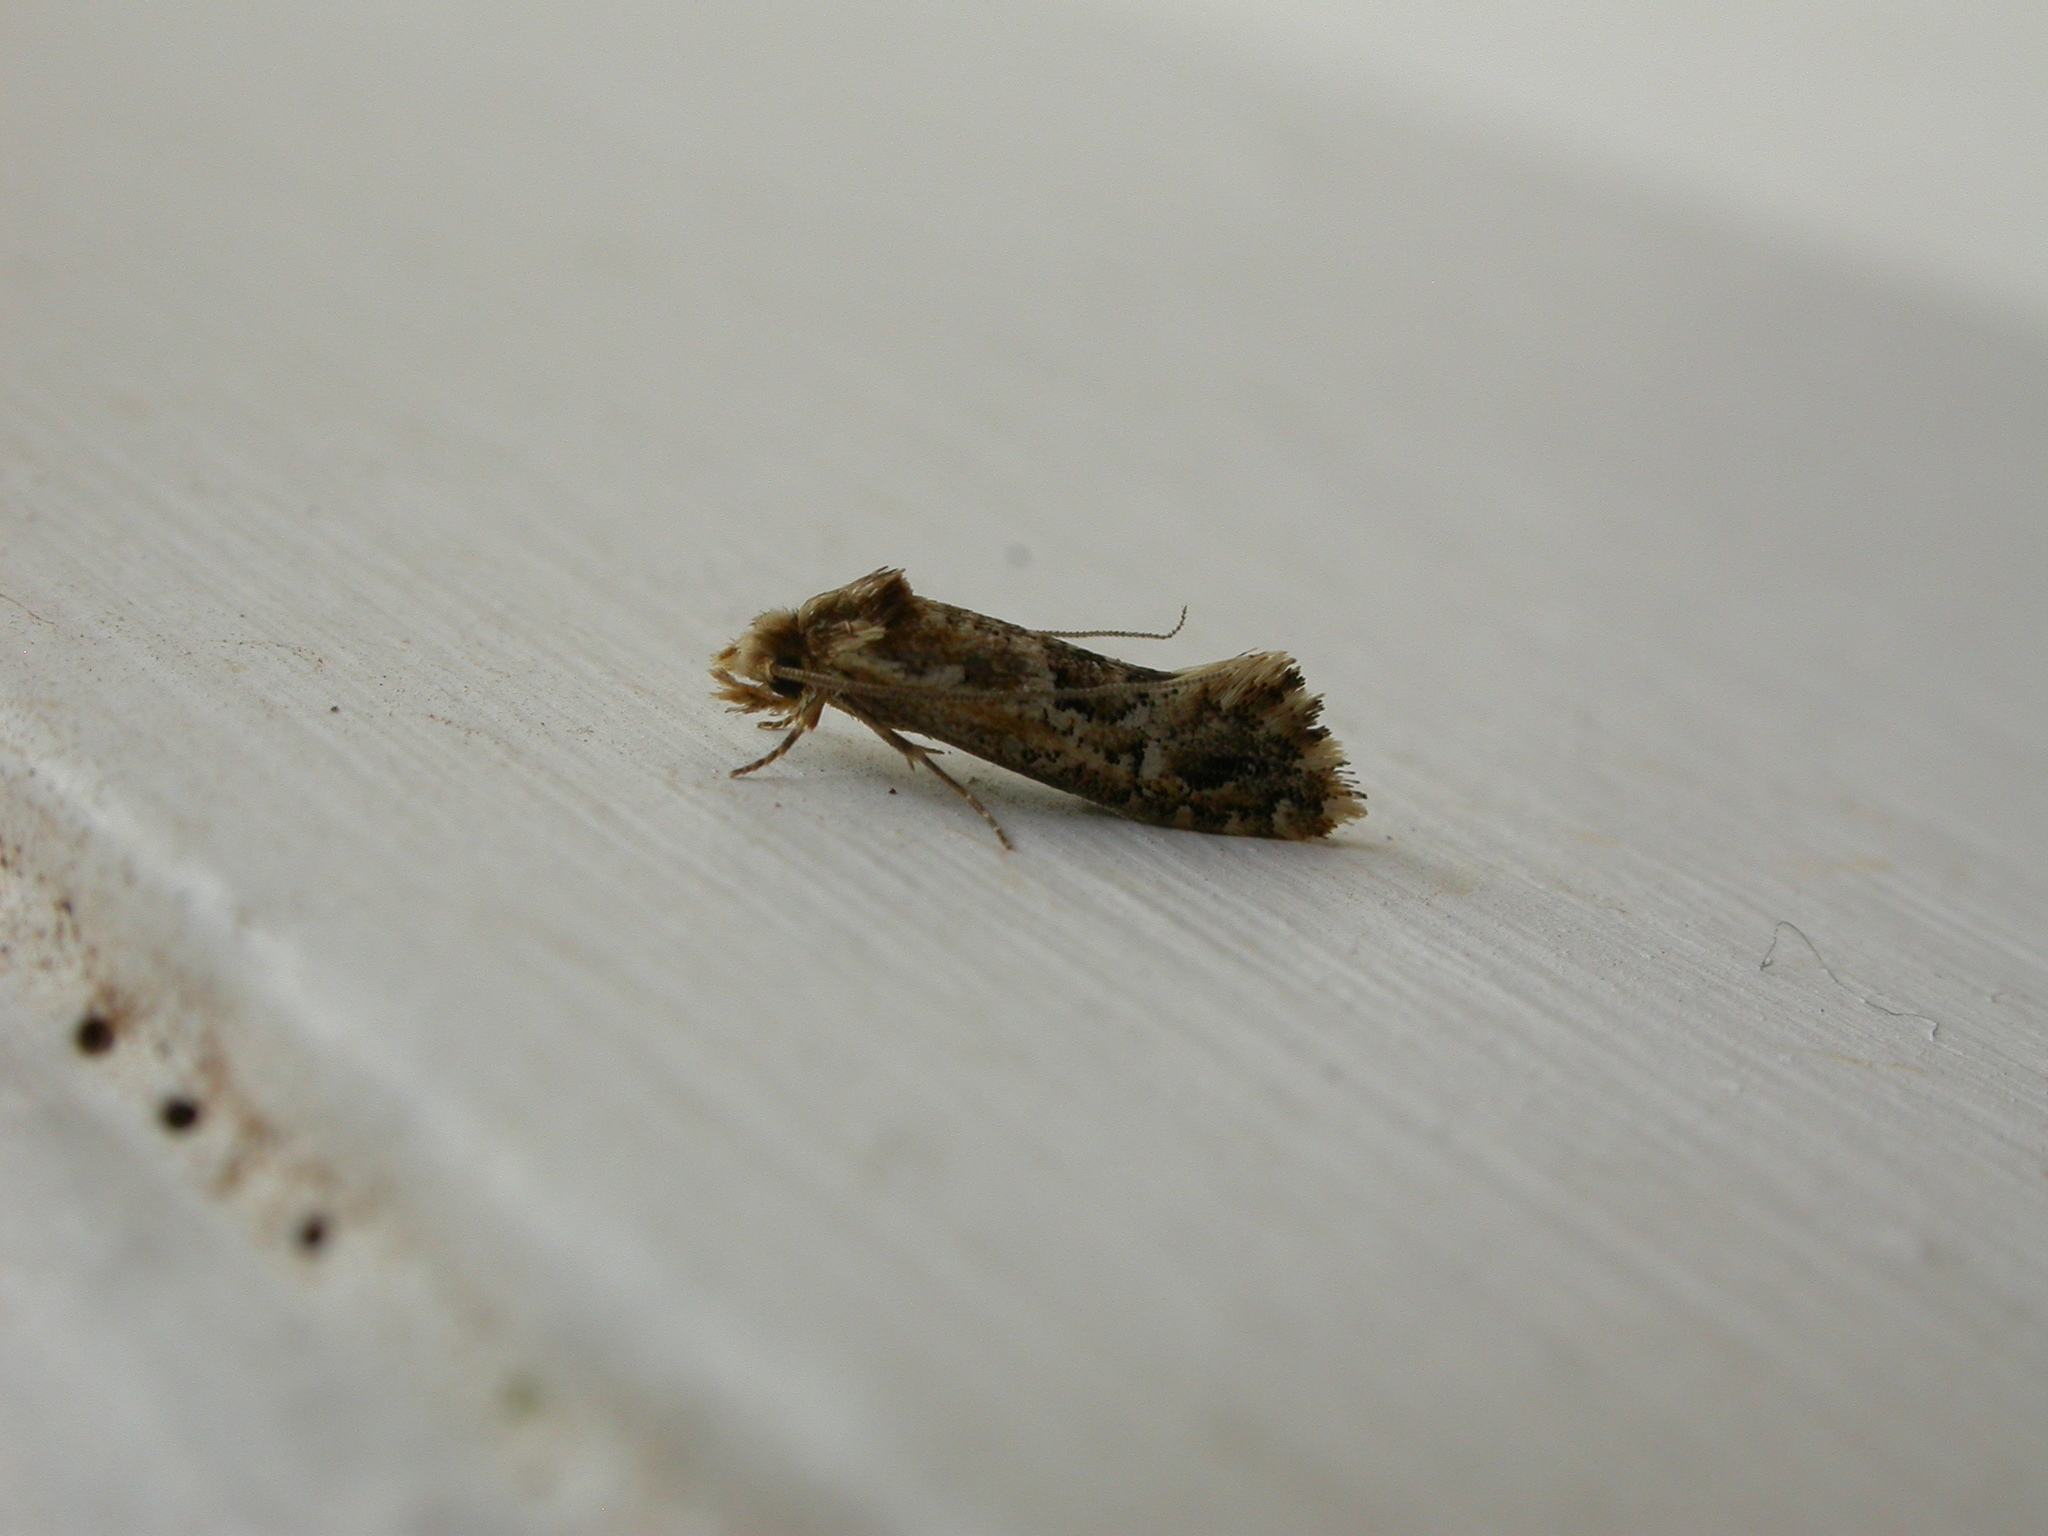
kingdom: Animalia
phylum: Arthropoda
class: Insecta
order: Lepidoptera
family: Tineidae
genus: Moerarchis
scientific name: Moerarchis inconcisella
